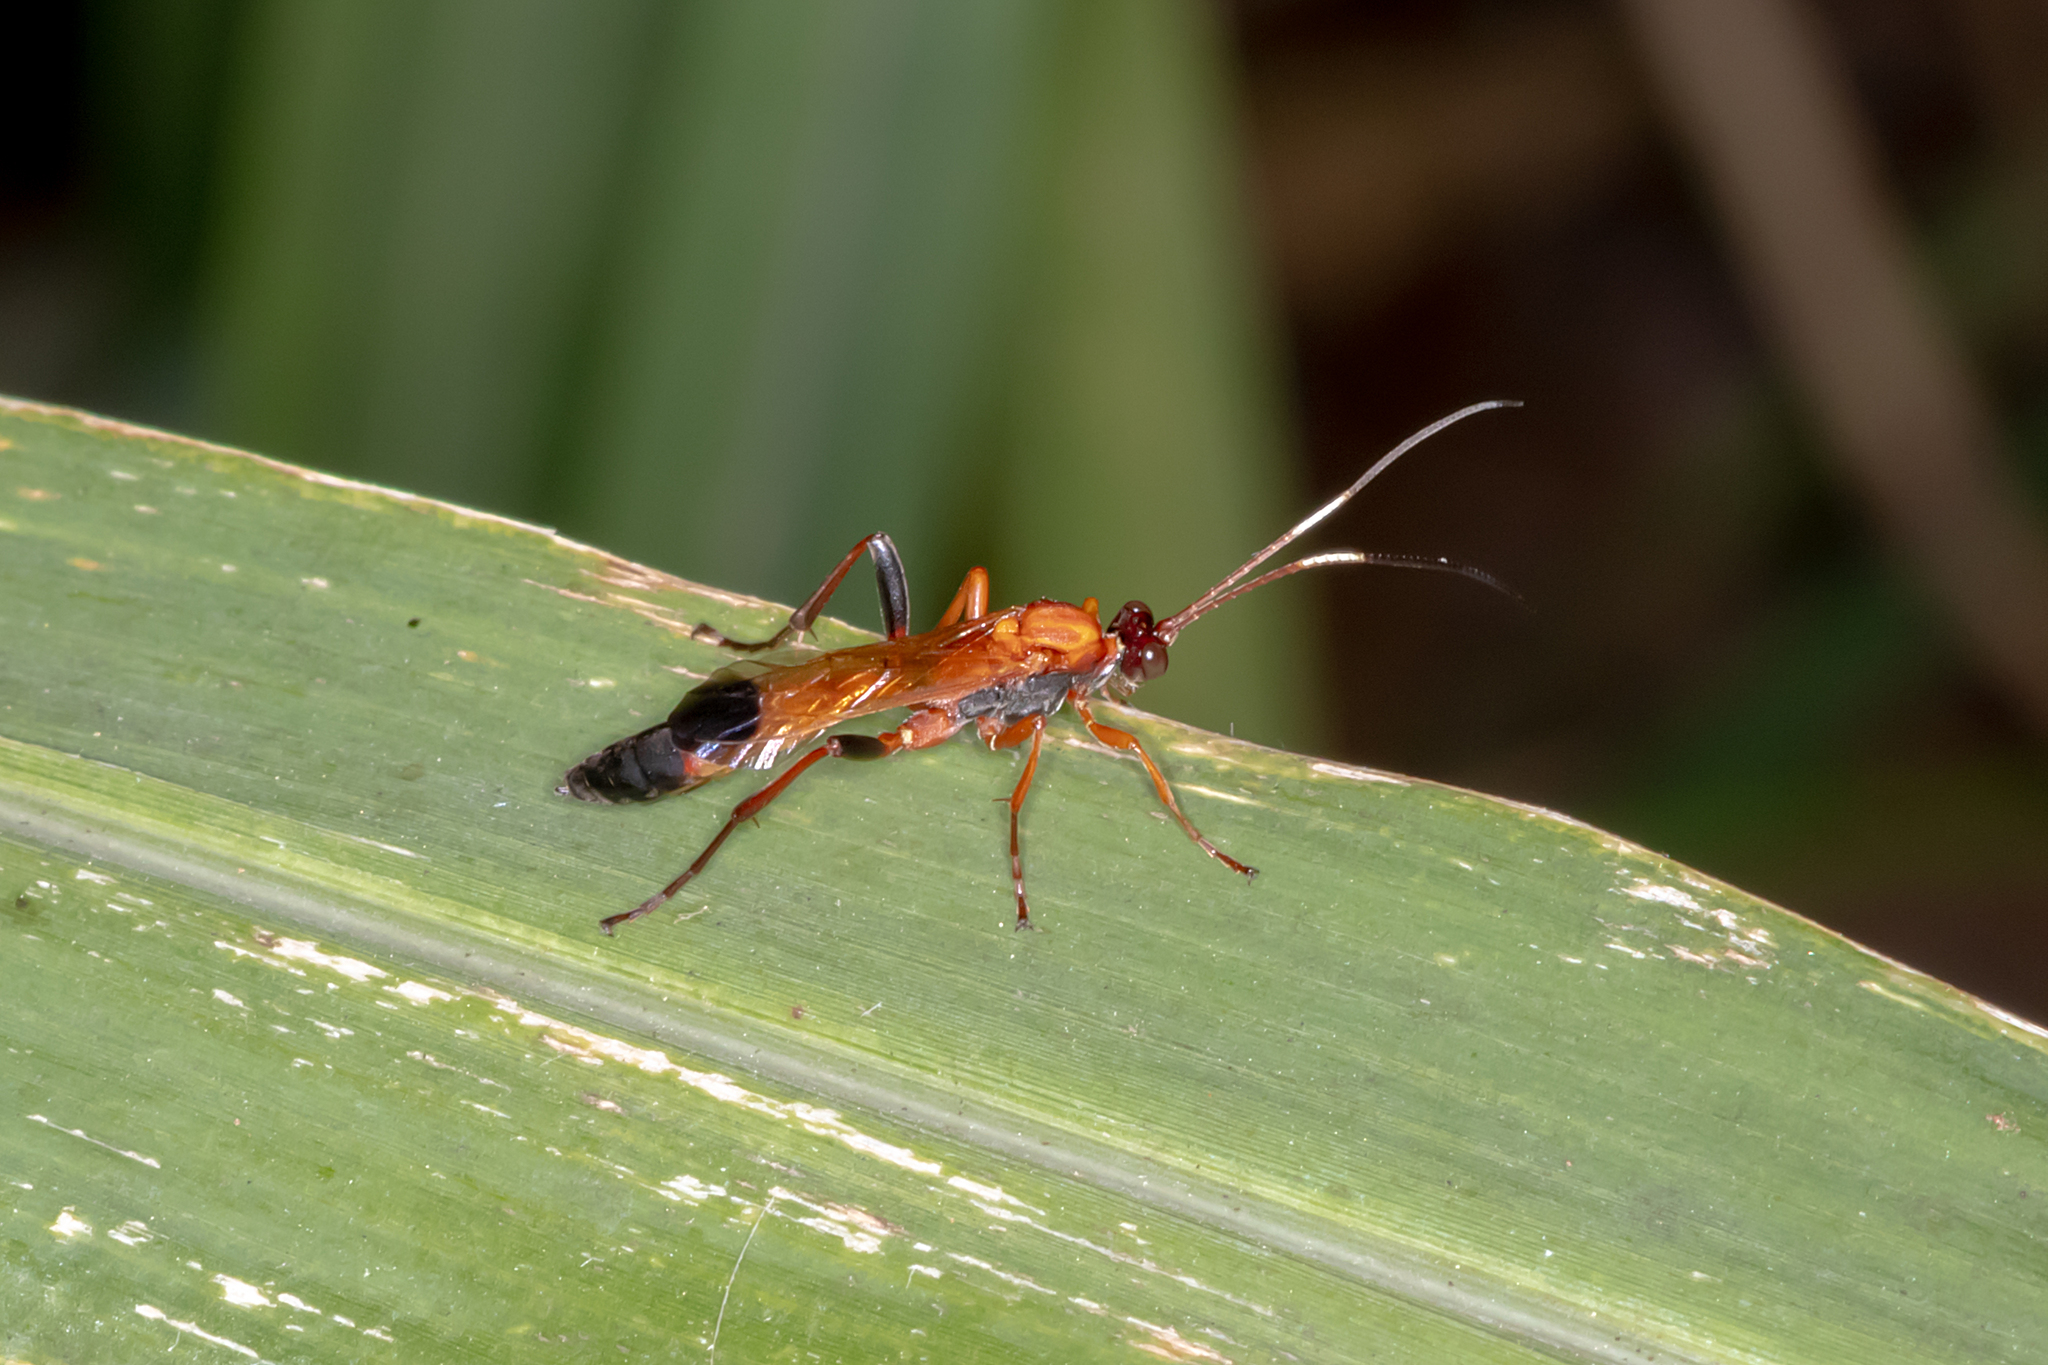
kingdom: Animalia
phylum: Arthropoda
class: Insecta
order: Hymenoptera
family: Ichneumonidae
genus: Ctenochares
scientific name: Ctenochares bicolorus
